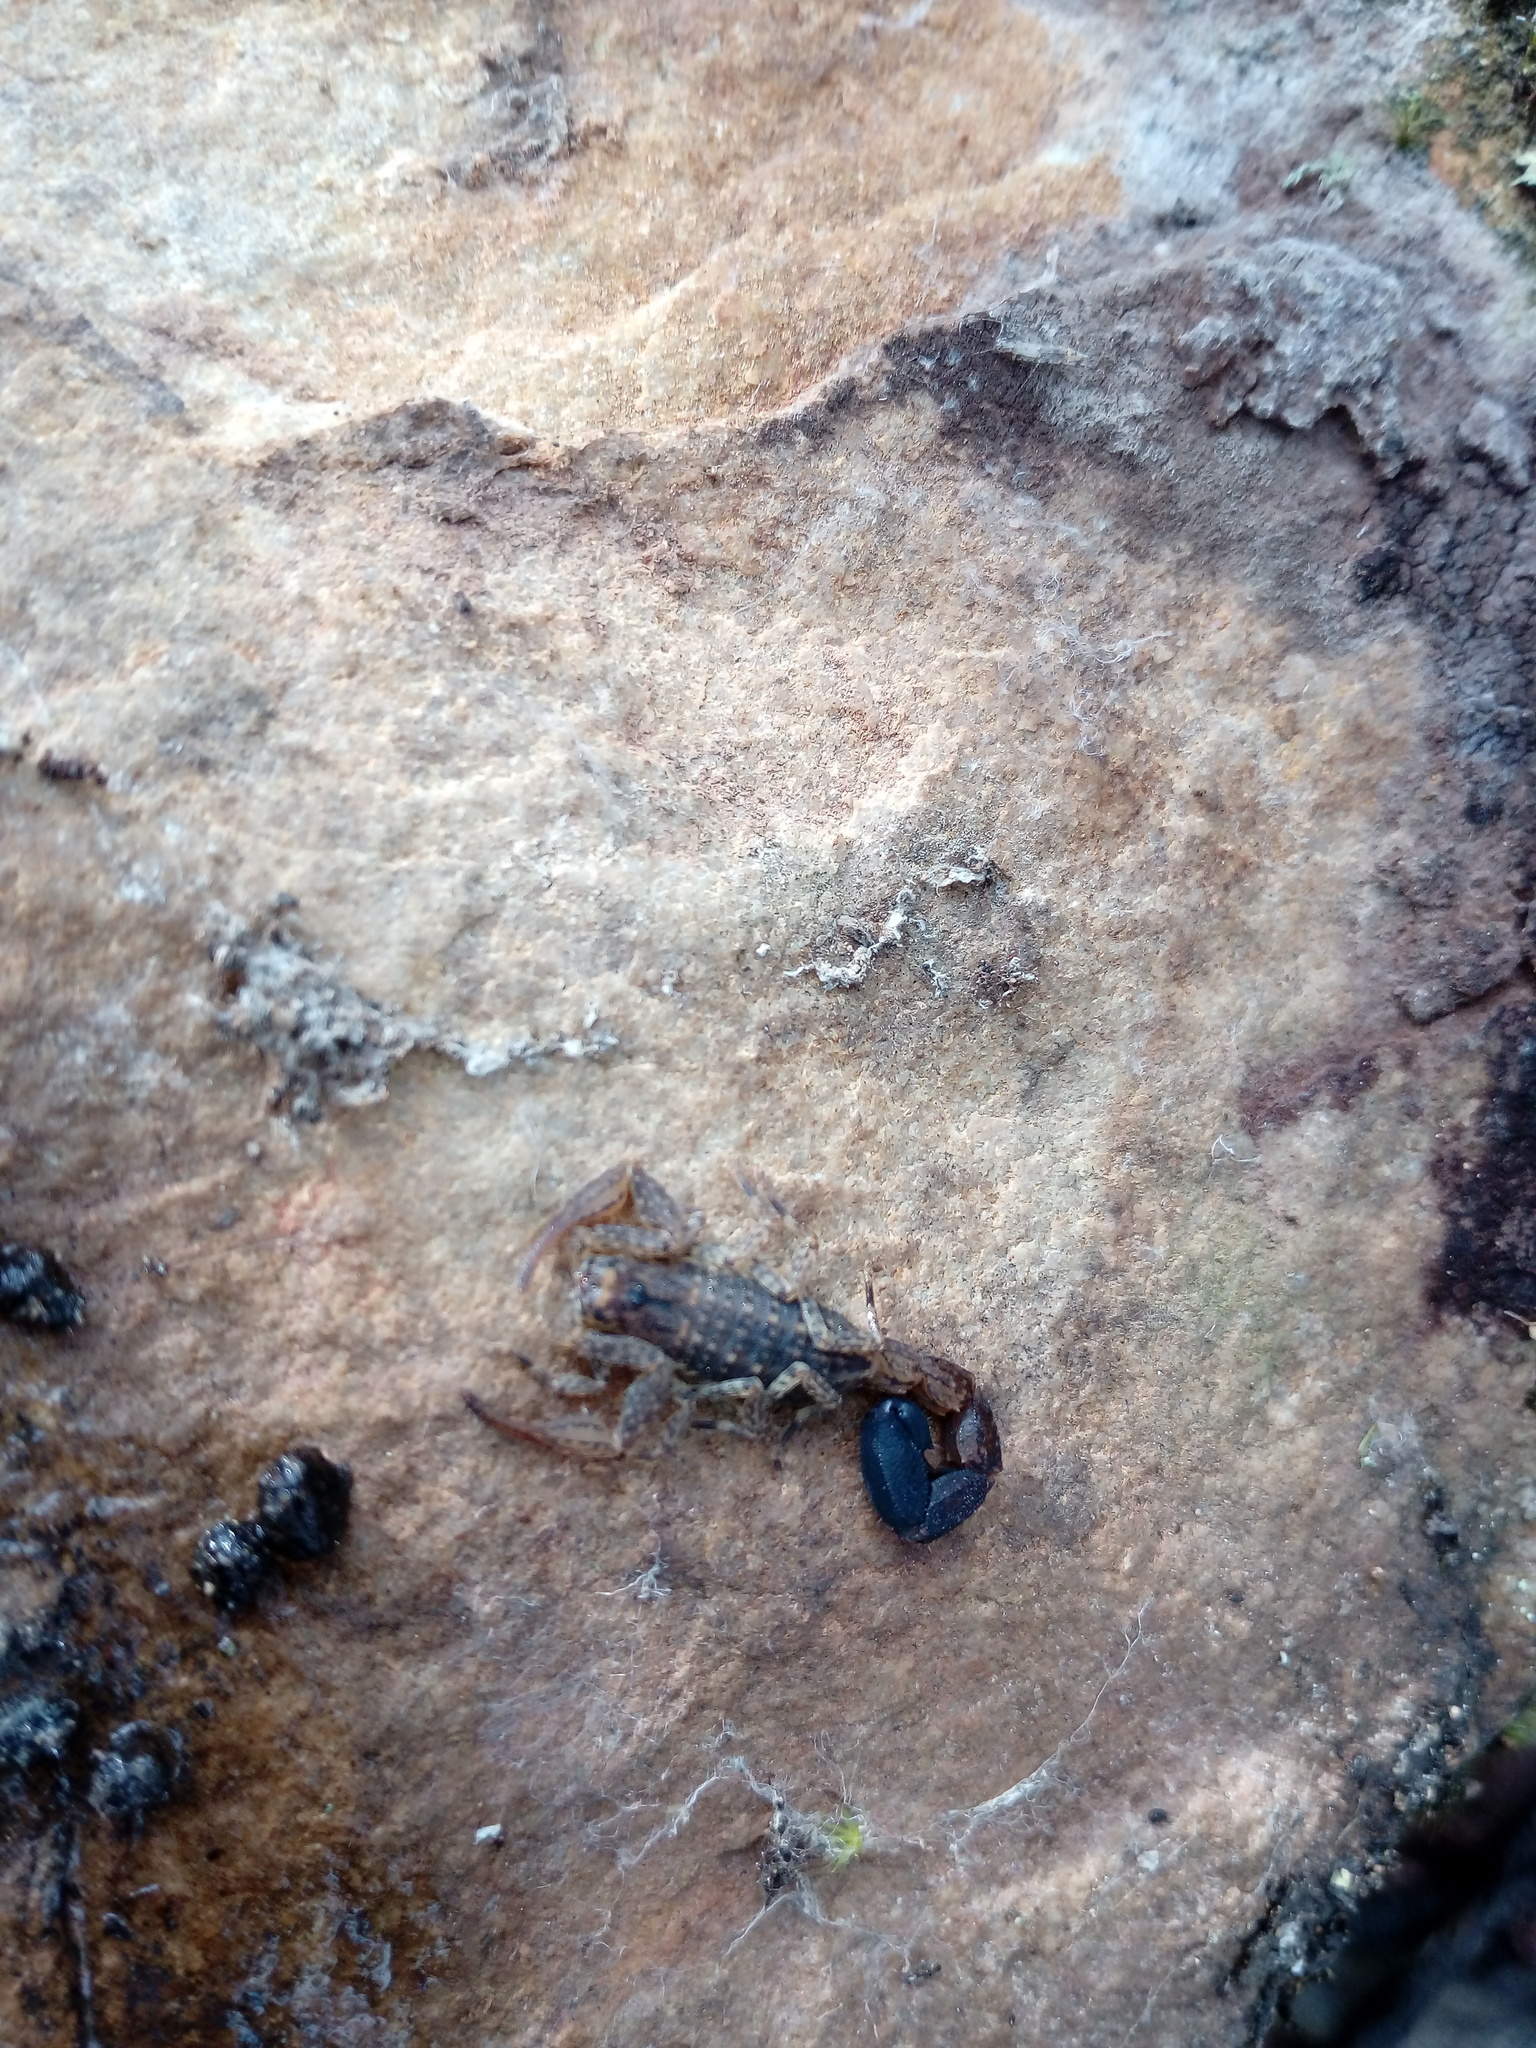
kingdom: Animalia
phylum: Arthropoda
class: Arachnida
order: Scorpiones
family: Buthidae
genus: Tityus
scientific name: Tityus columbianus
